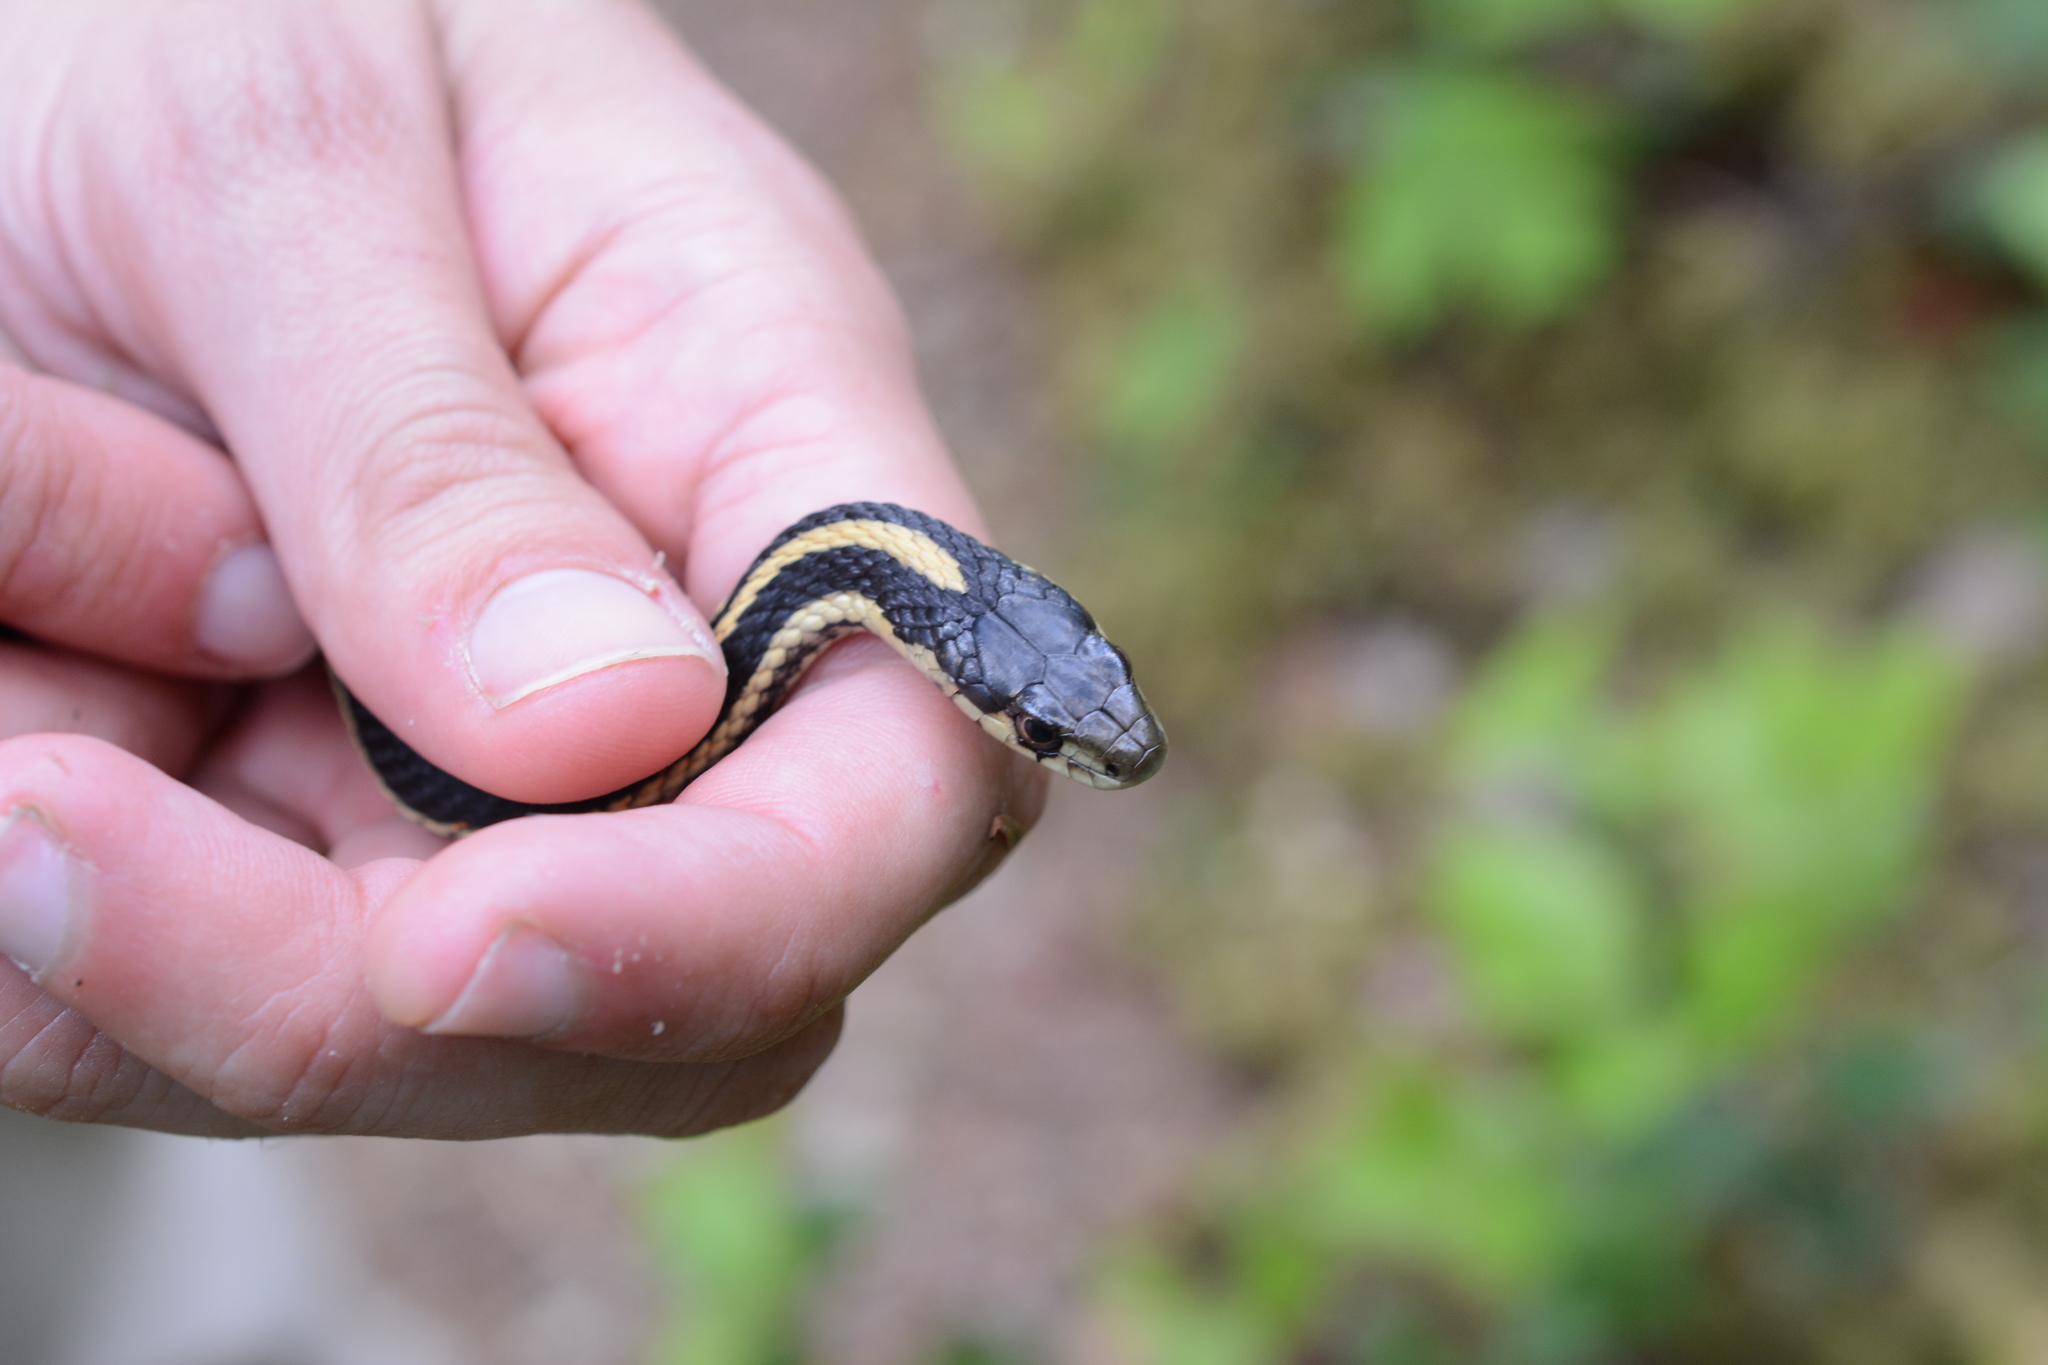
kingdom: Animalia
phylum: Chordata
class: Squamata
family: Colubridae
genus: Thamnophis
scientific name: Thamnophis sirtalis
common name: Common garter snake
